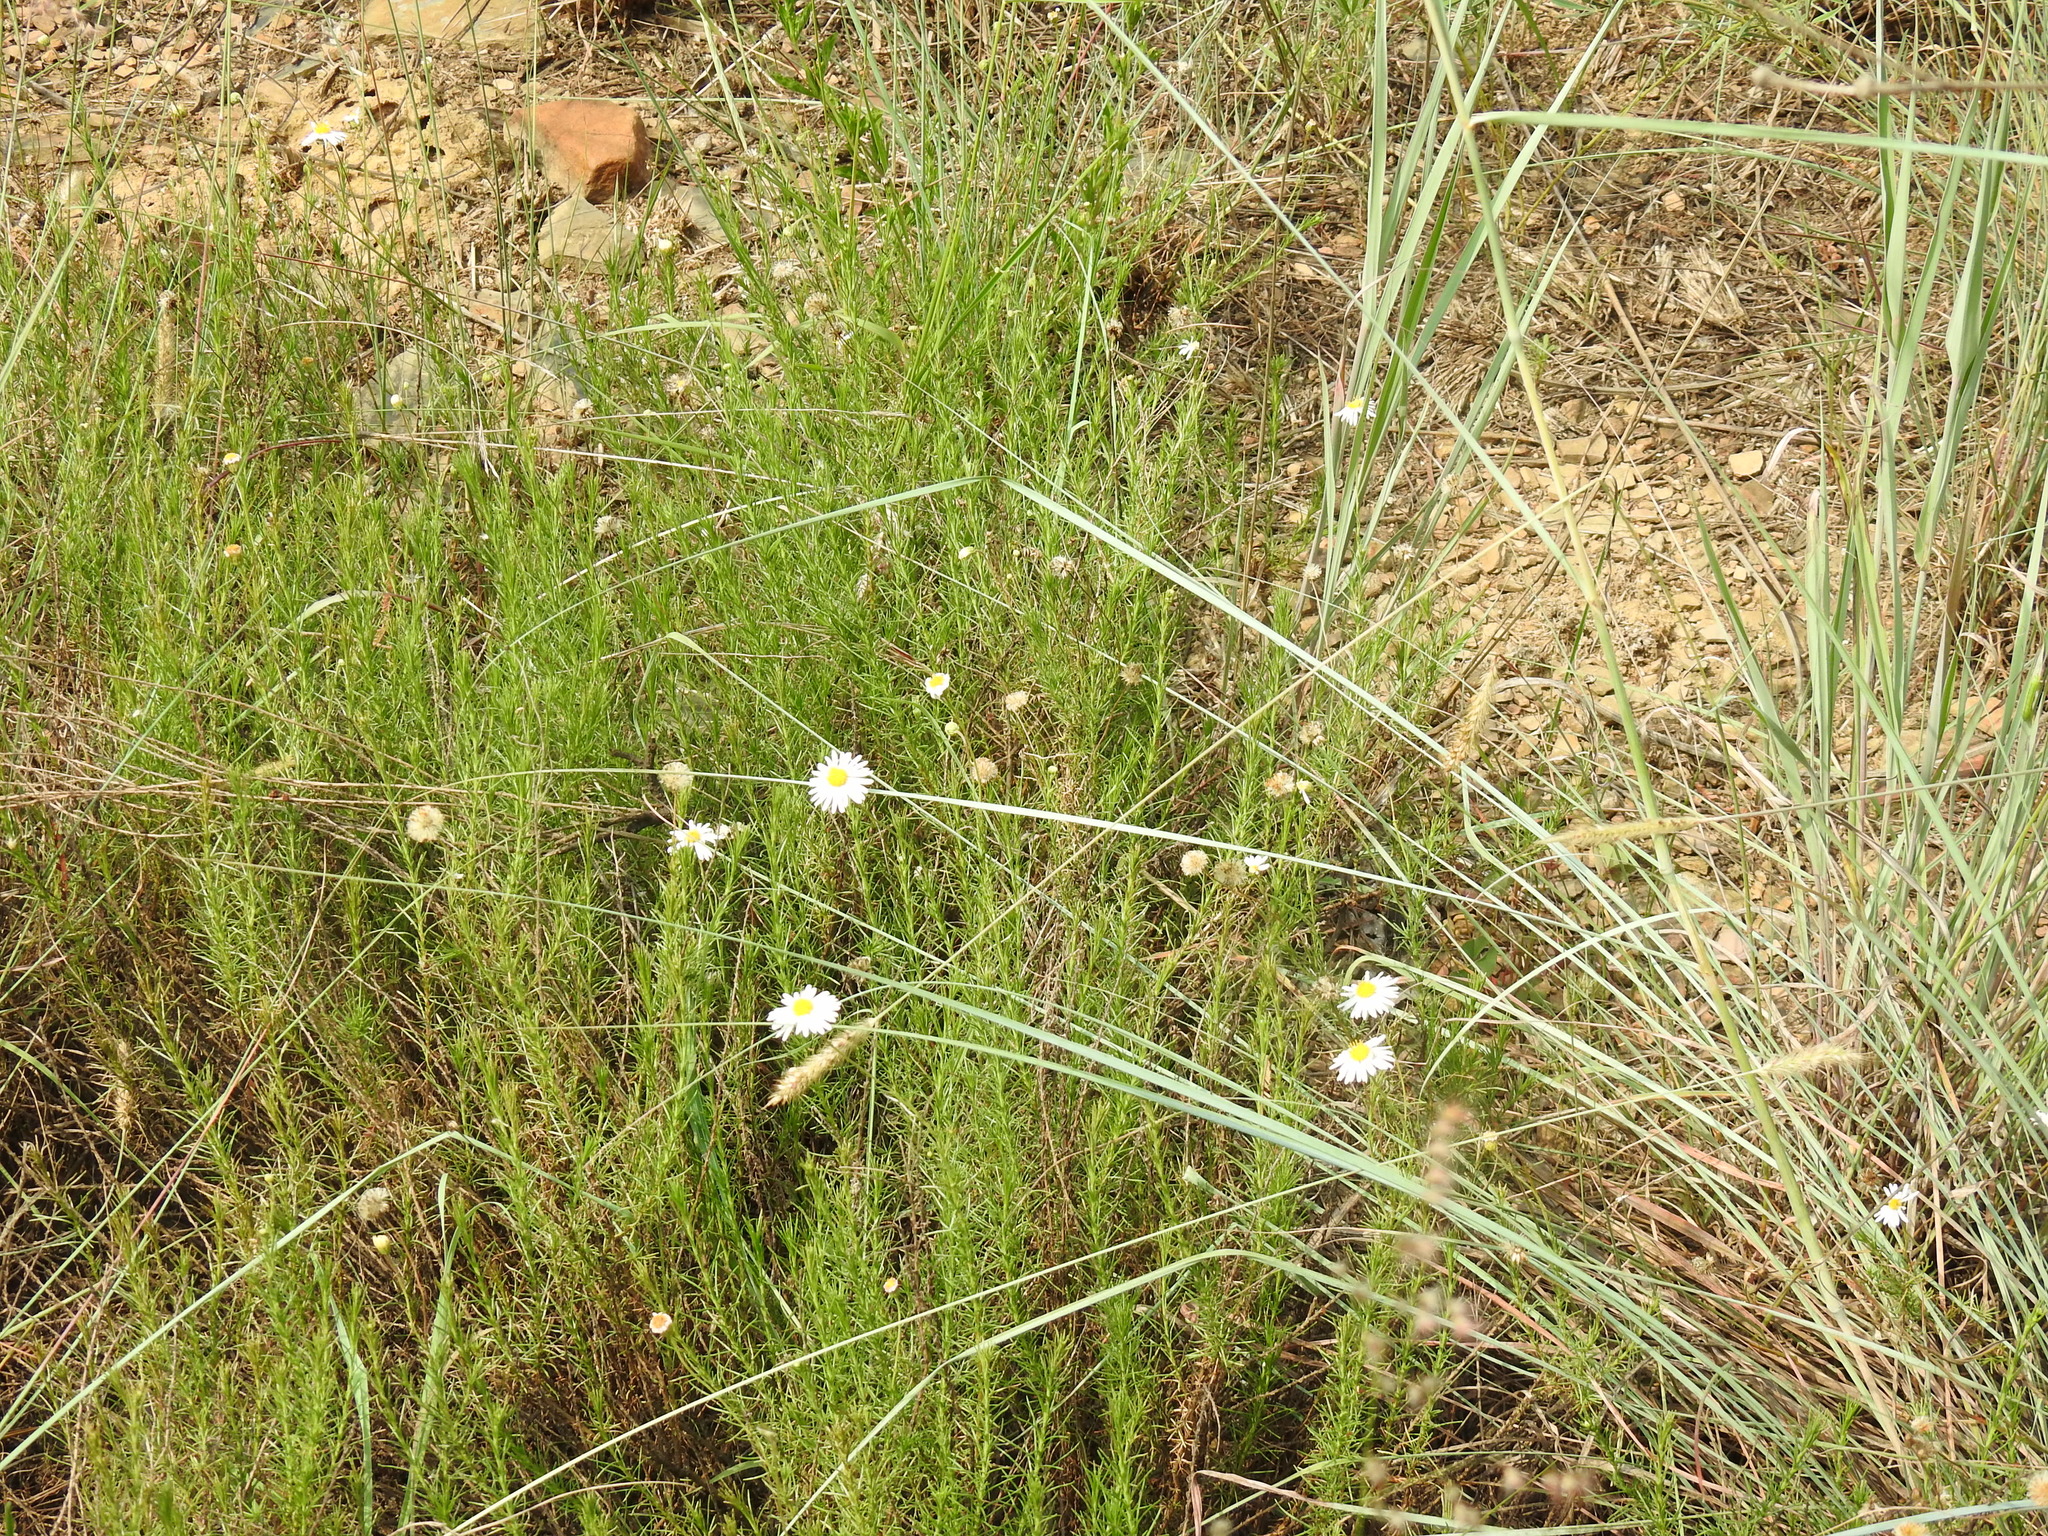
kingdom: Plantae
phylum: Tracheophyta
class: Magnoliopsida
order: Asterales
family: Asteraceae
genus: Felicia
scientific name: Felicia muricata
